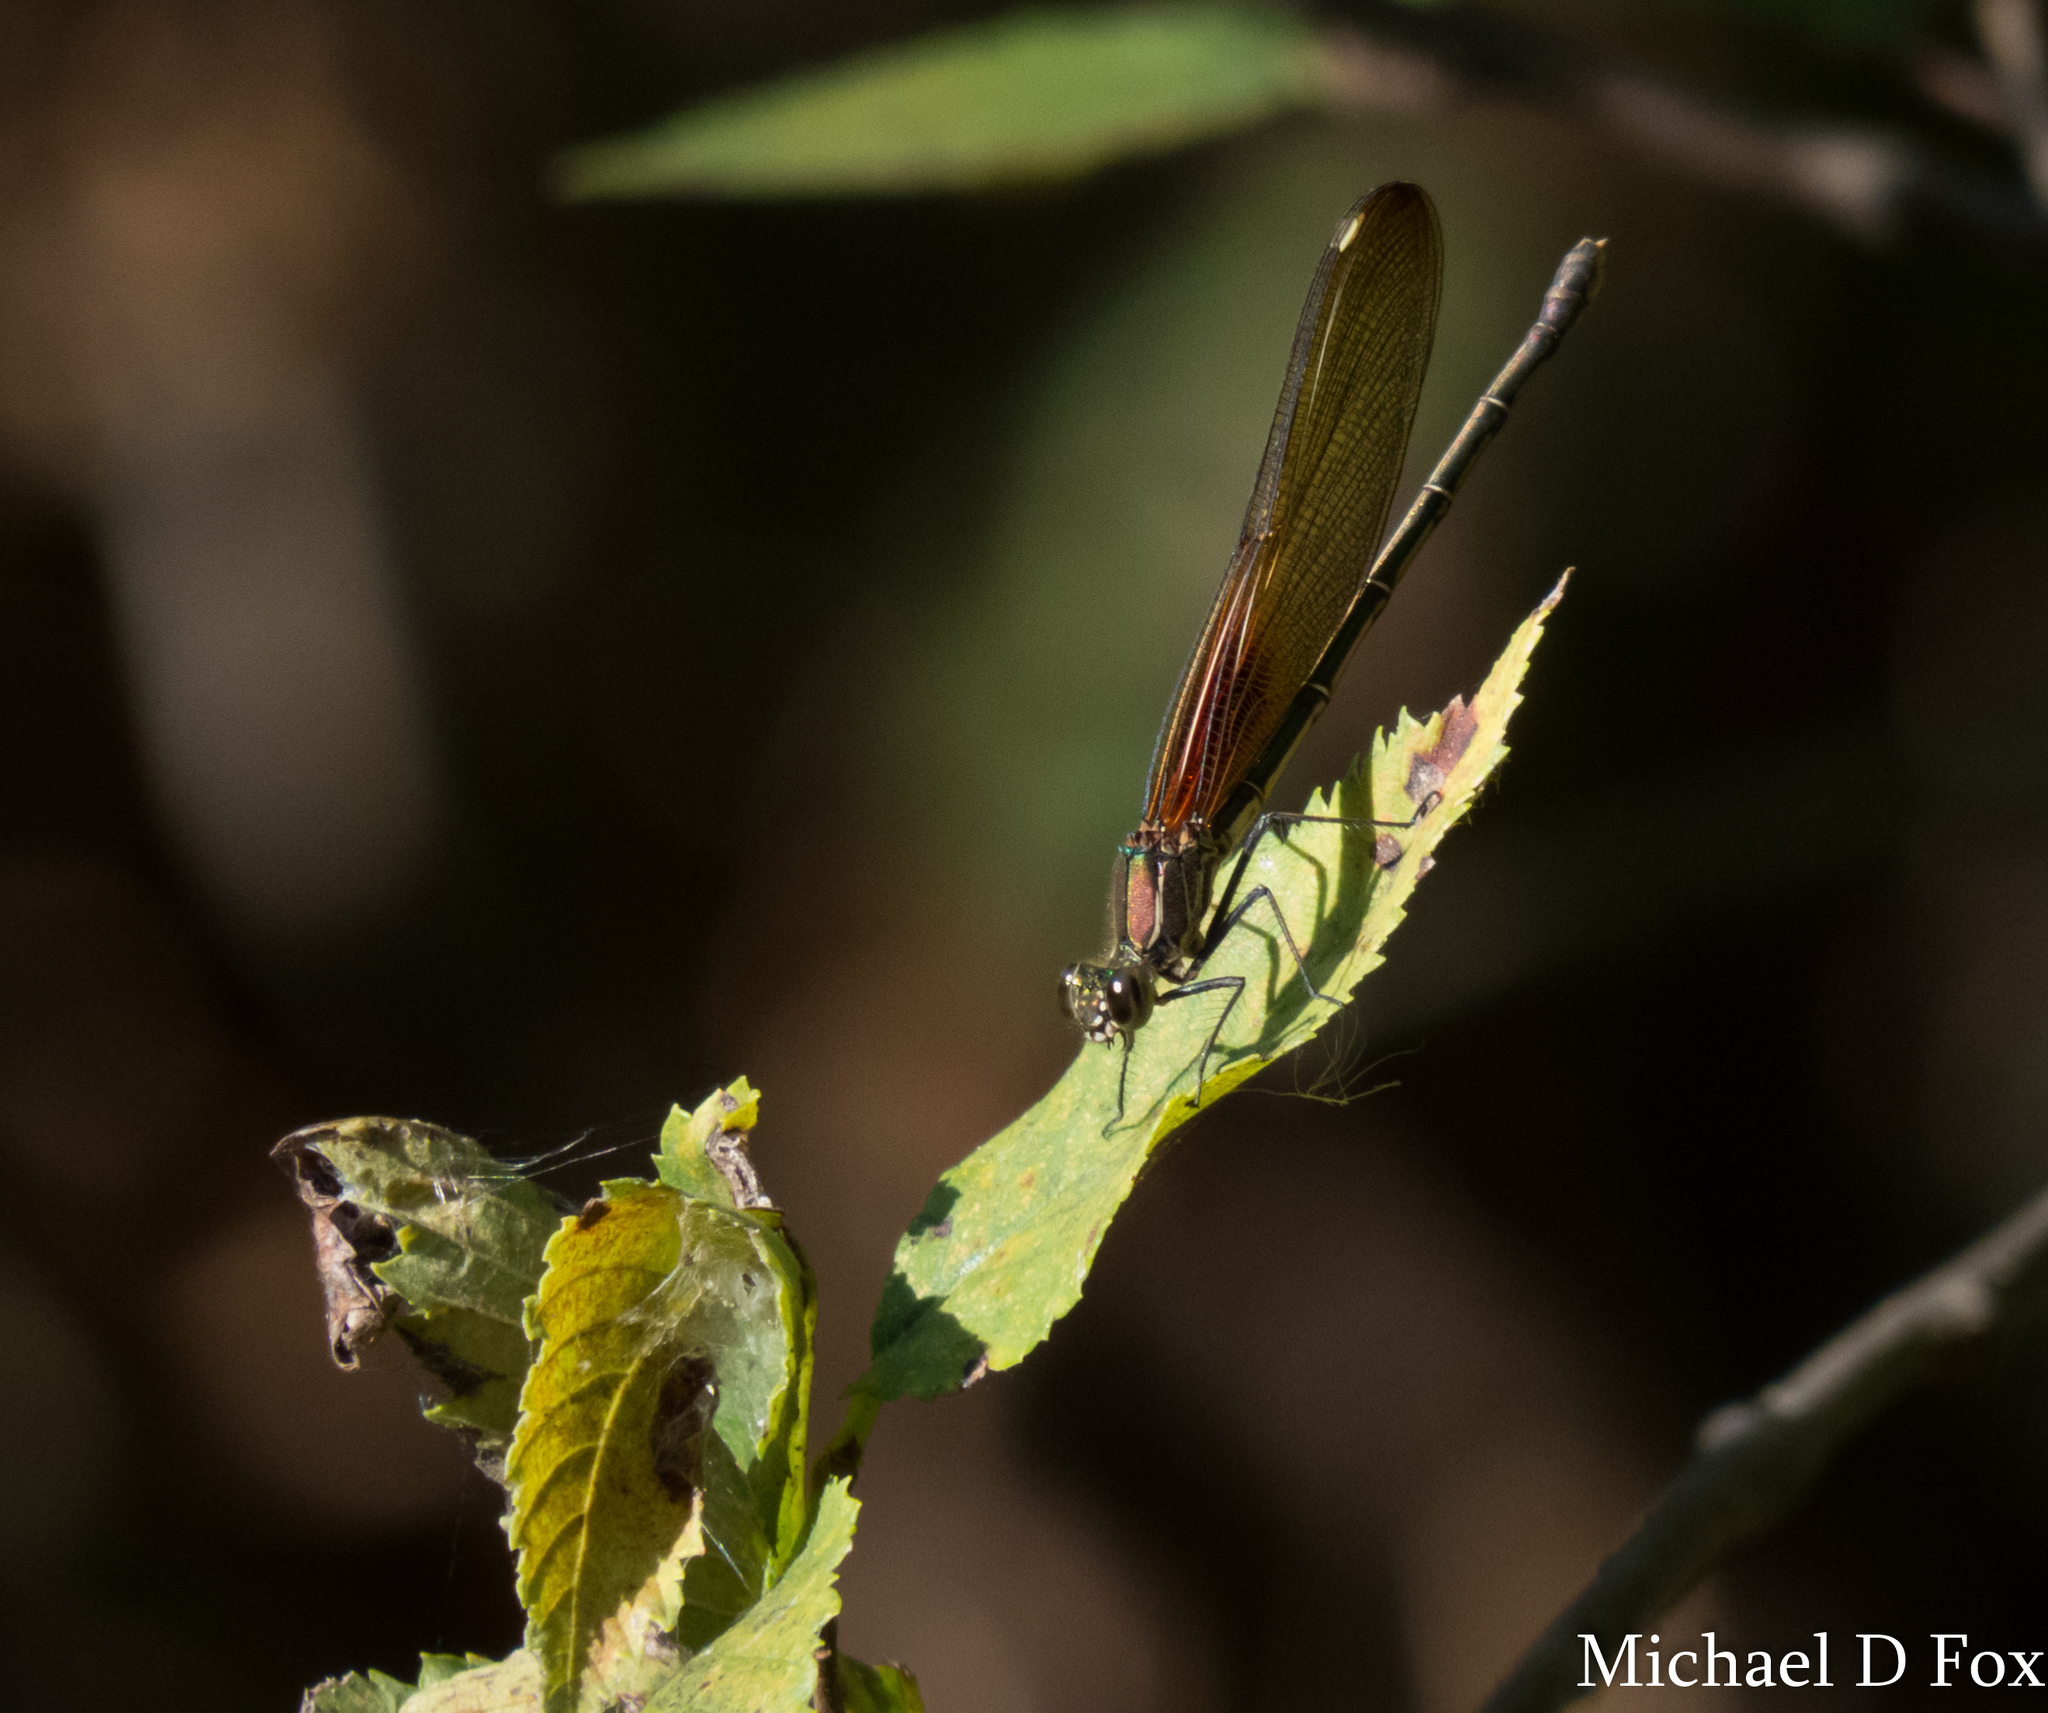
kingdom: Animalia
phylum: Arthropoda
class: Insecta
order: Odonata
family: Calopterygidae
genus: Hetaerina
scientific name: Hetaerina americana
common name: American rubyspot
